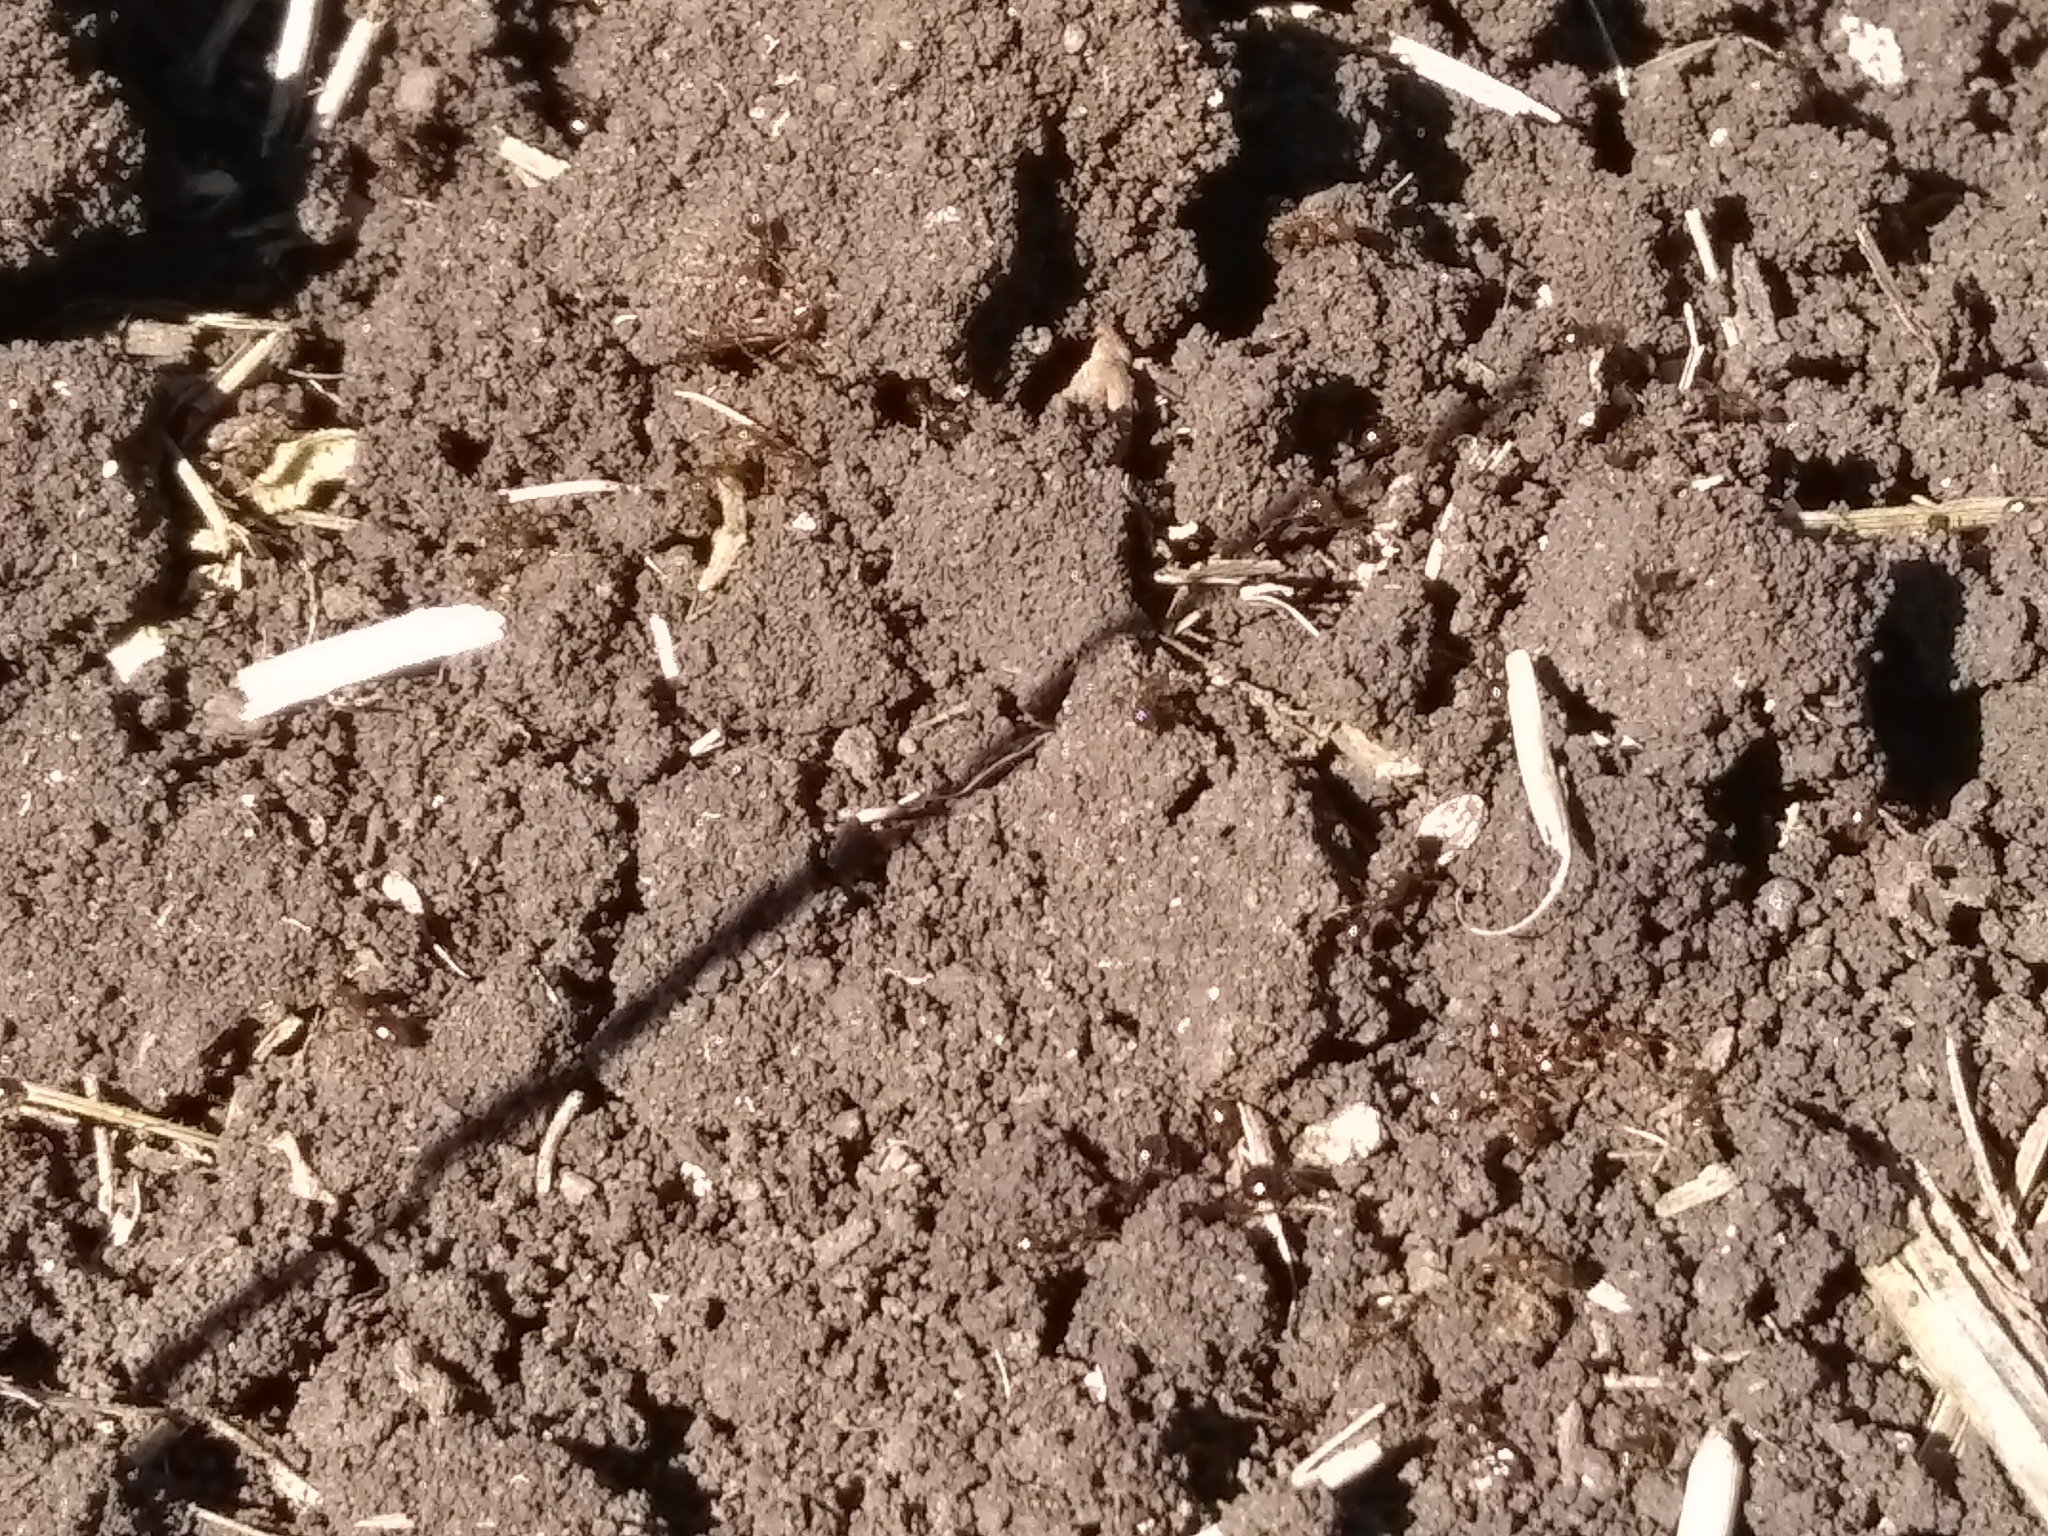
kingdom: Animalia
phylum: Arthropoda
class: Insecta
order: Hymenoptera
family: Formicidae
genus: Solenopsis
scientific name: Solenopsis invicta
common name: Red imported fire ant
